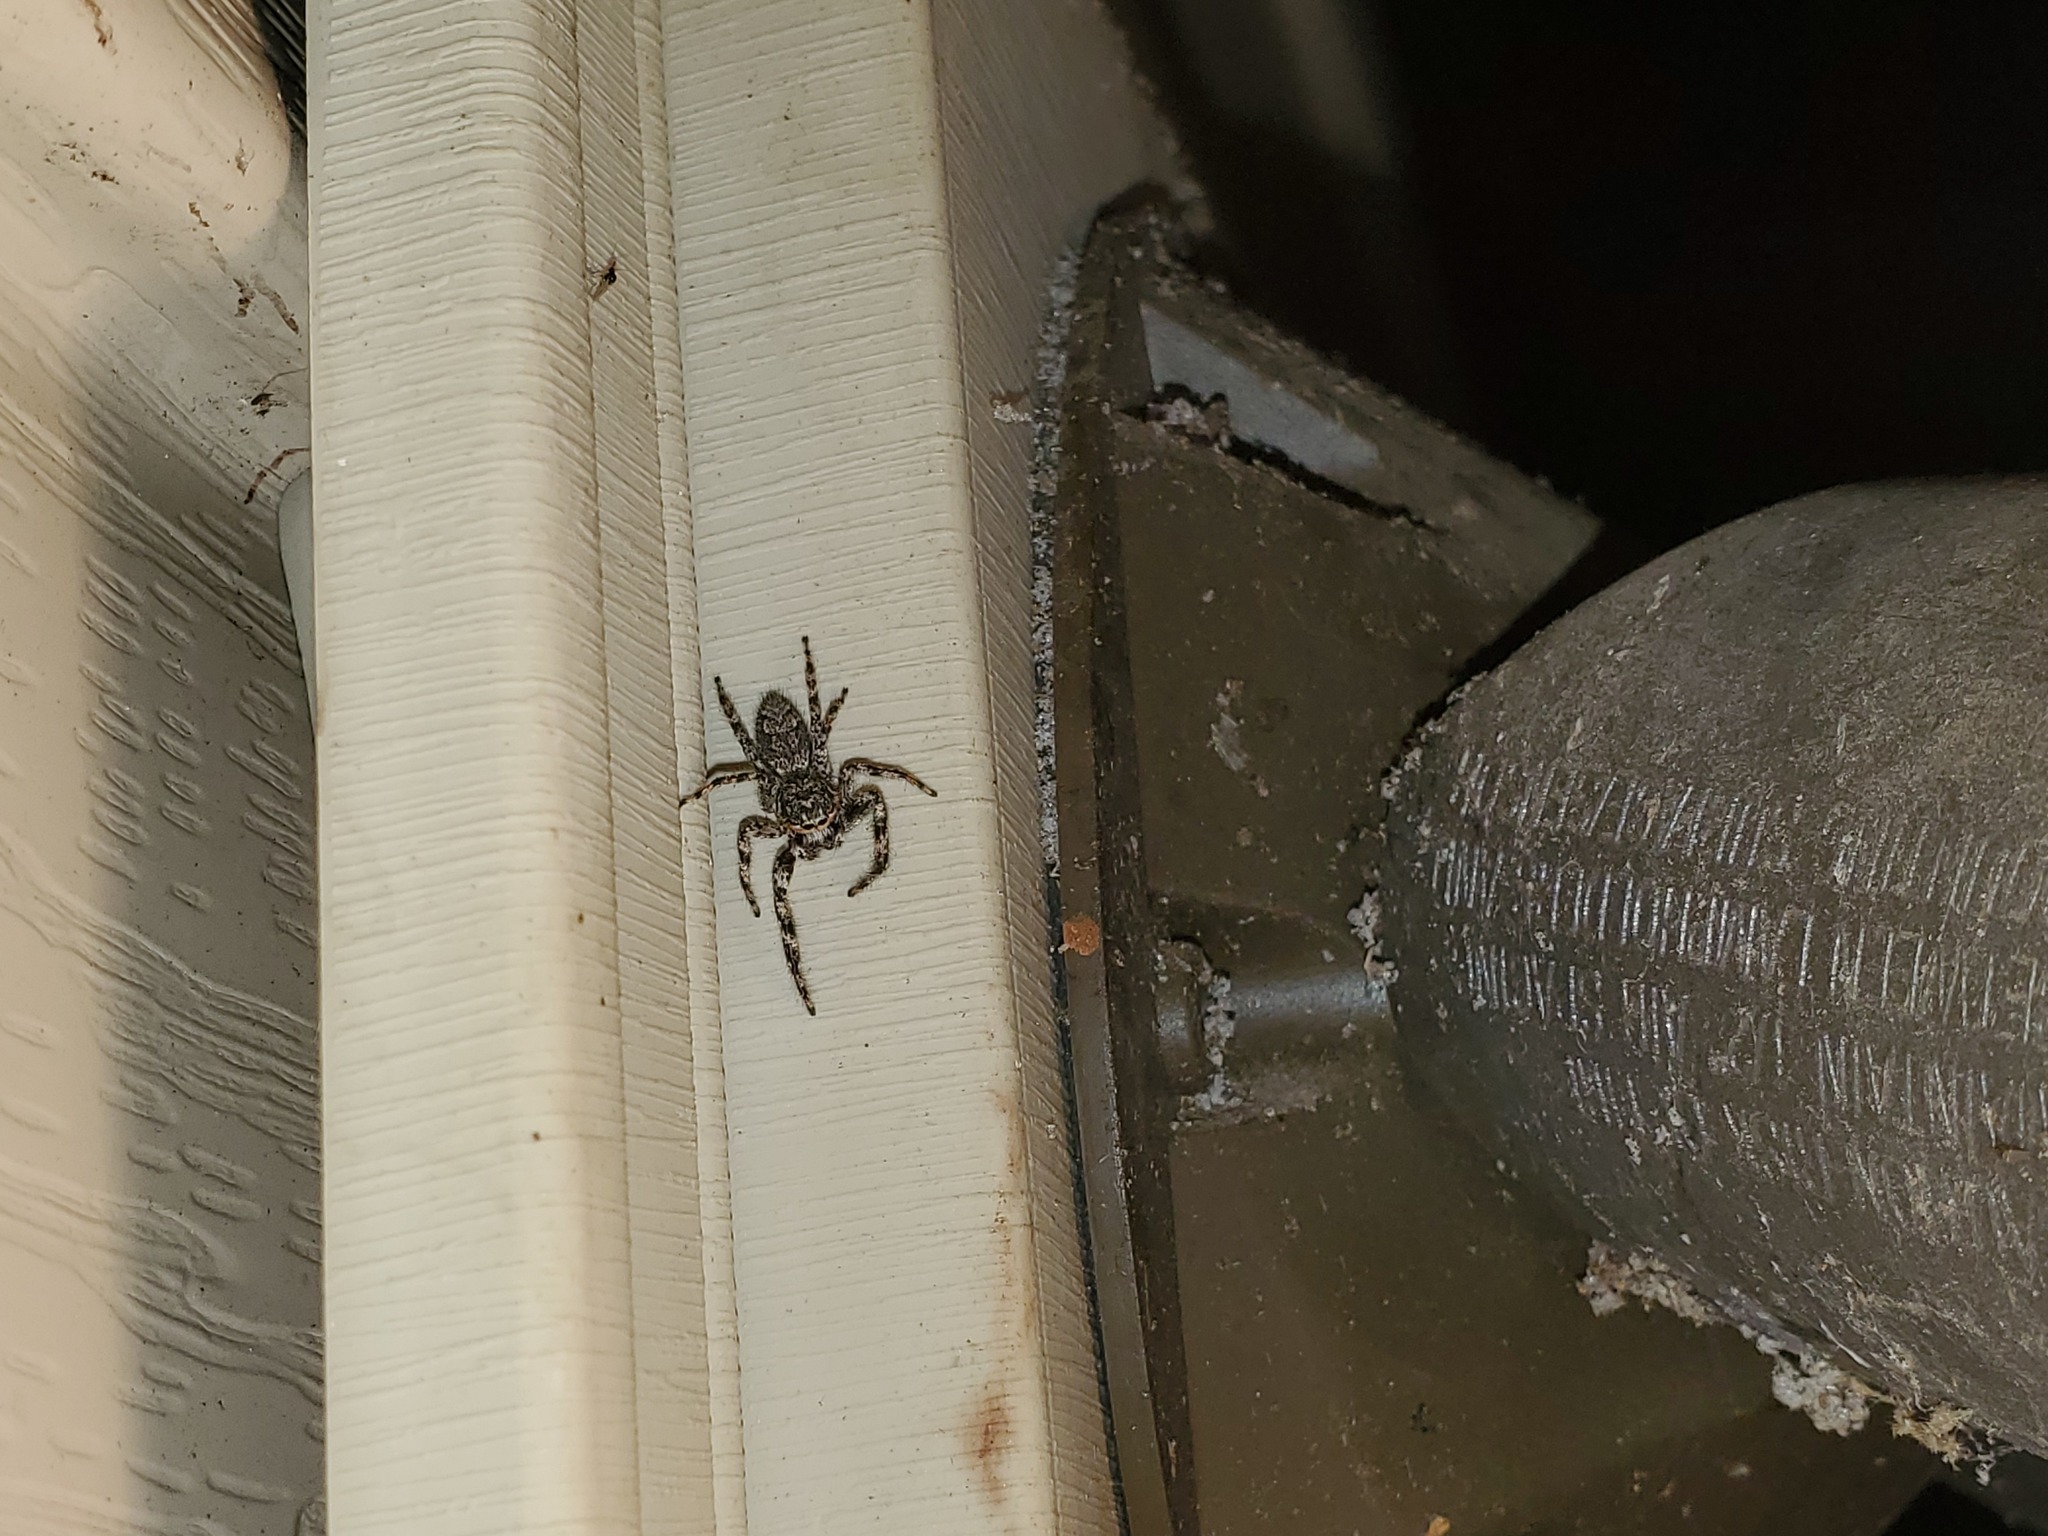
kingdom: Animalia
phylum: Arthropoda
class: Arachnida
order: Araneae
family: Salticidae
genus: Platycryptus
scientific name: Platycryptus undatus
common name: Tan jumping spider
